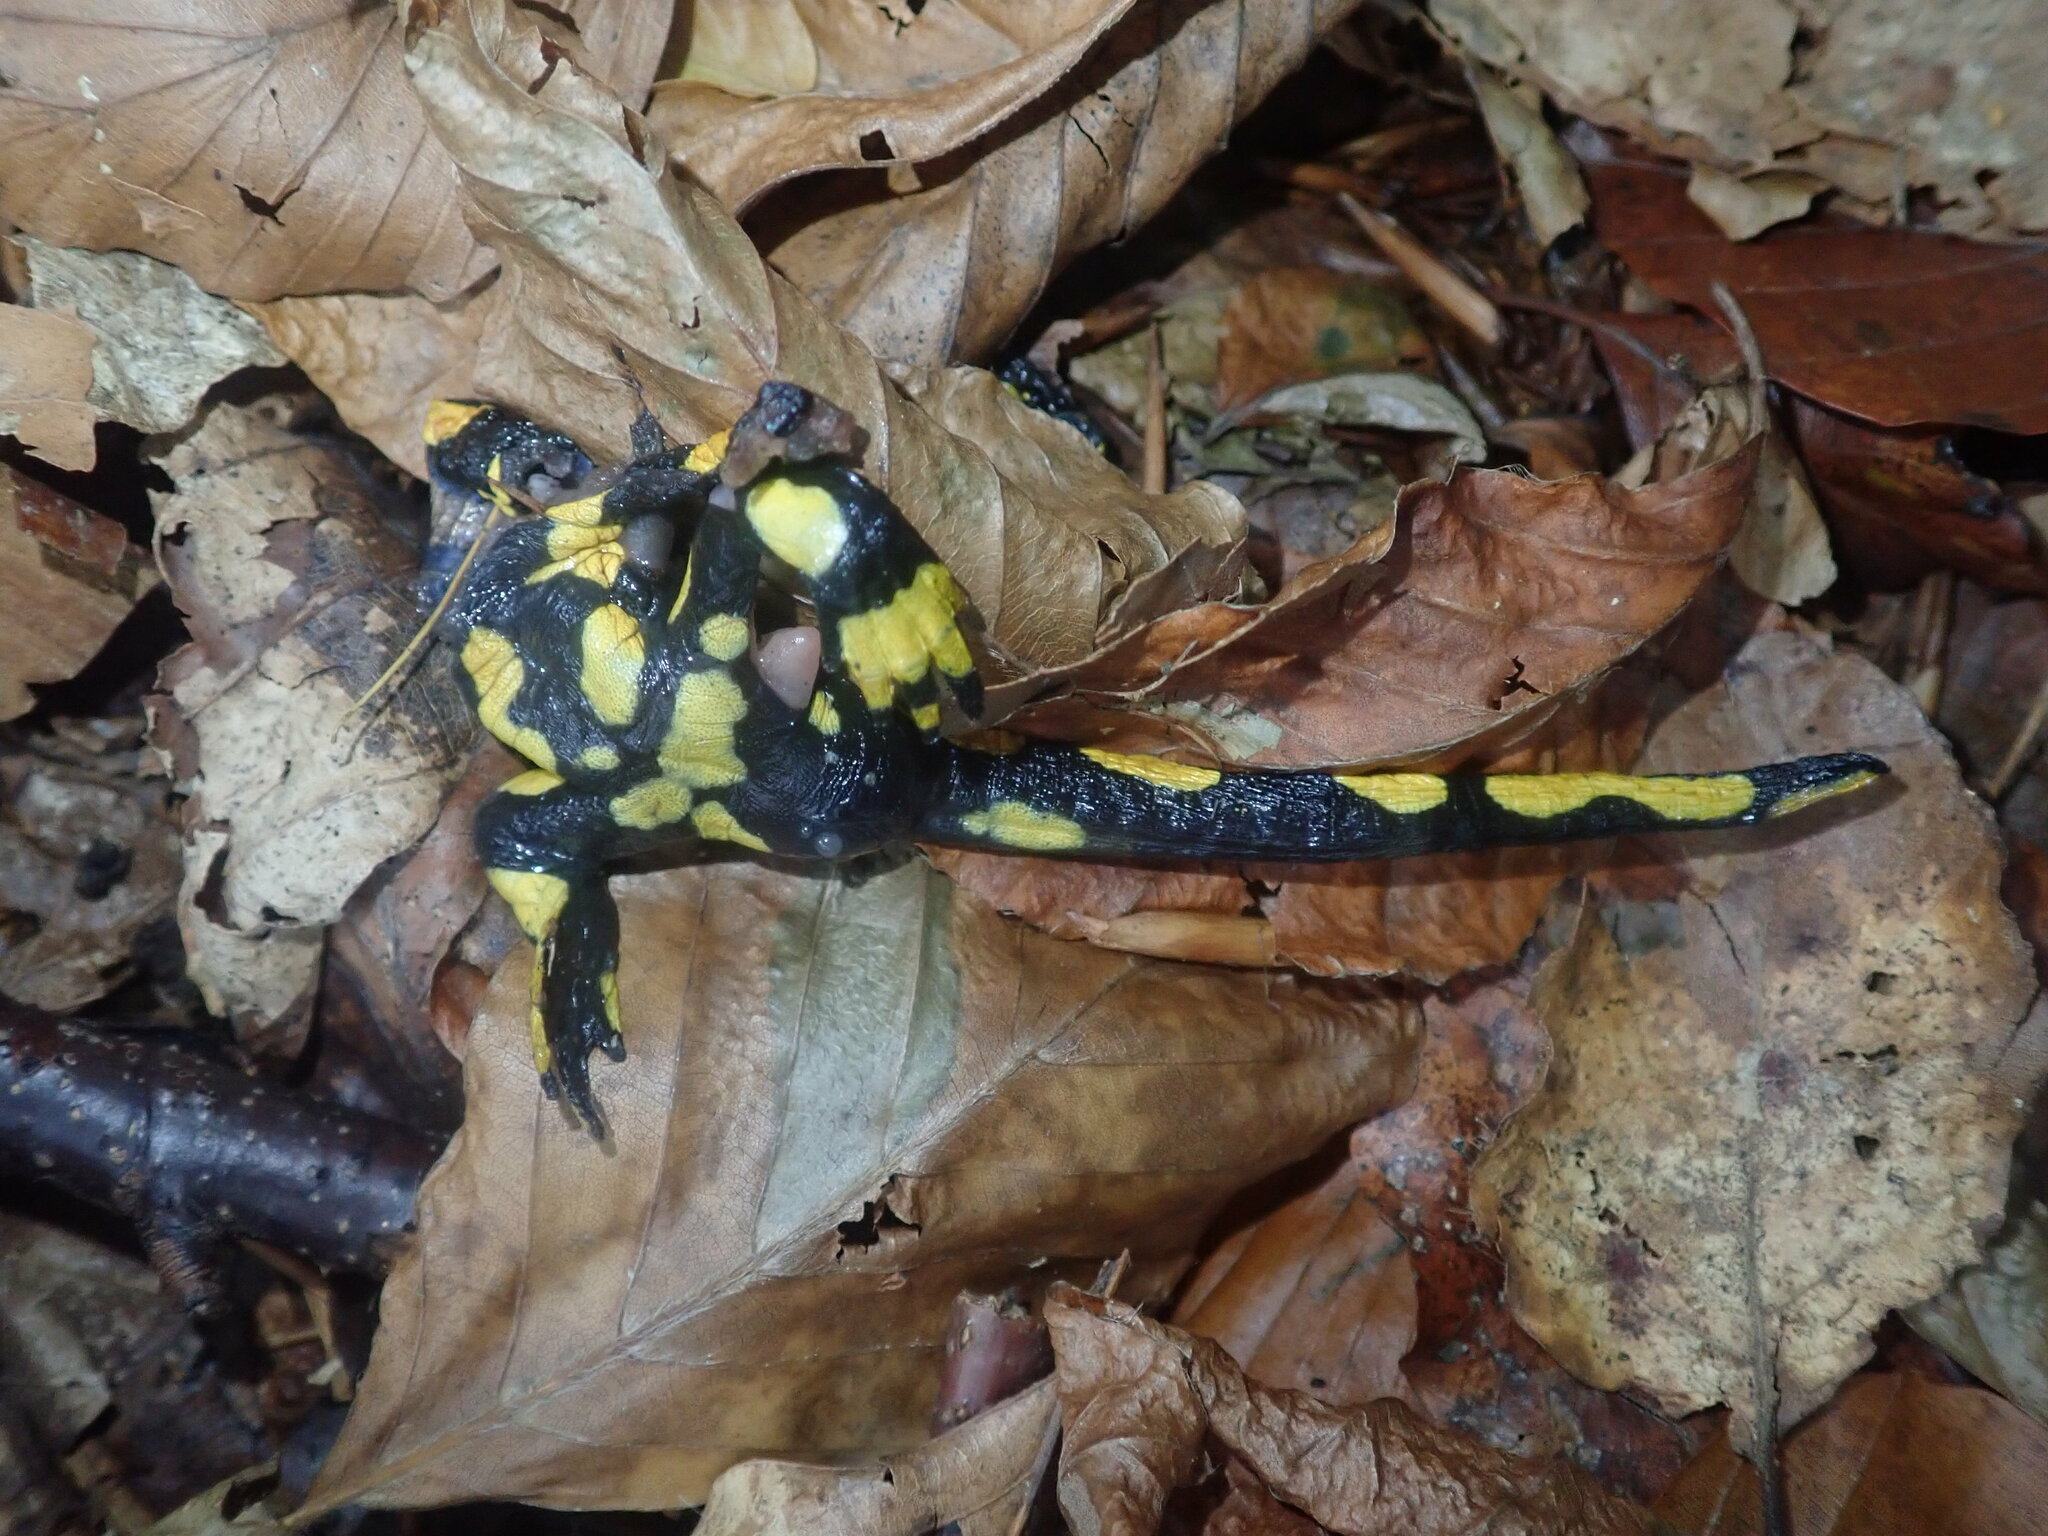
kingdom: Animalia
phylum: Chordata
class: Amphibia
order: Caudata
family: Salamandridae
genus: Salamandra
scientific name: Salamandra salamandra
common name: Fire salamander
